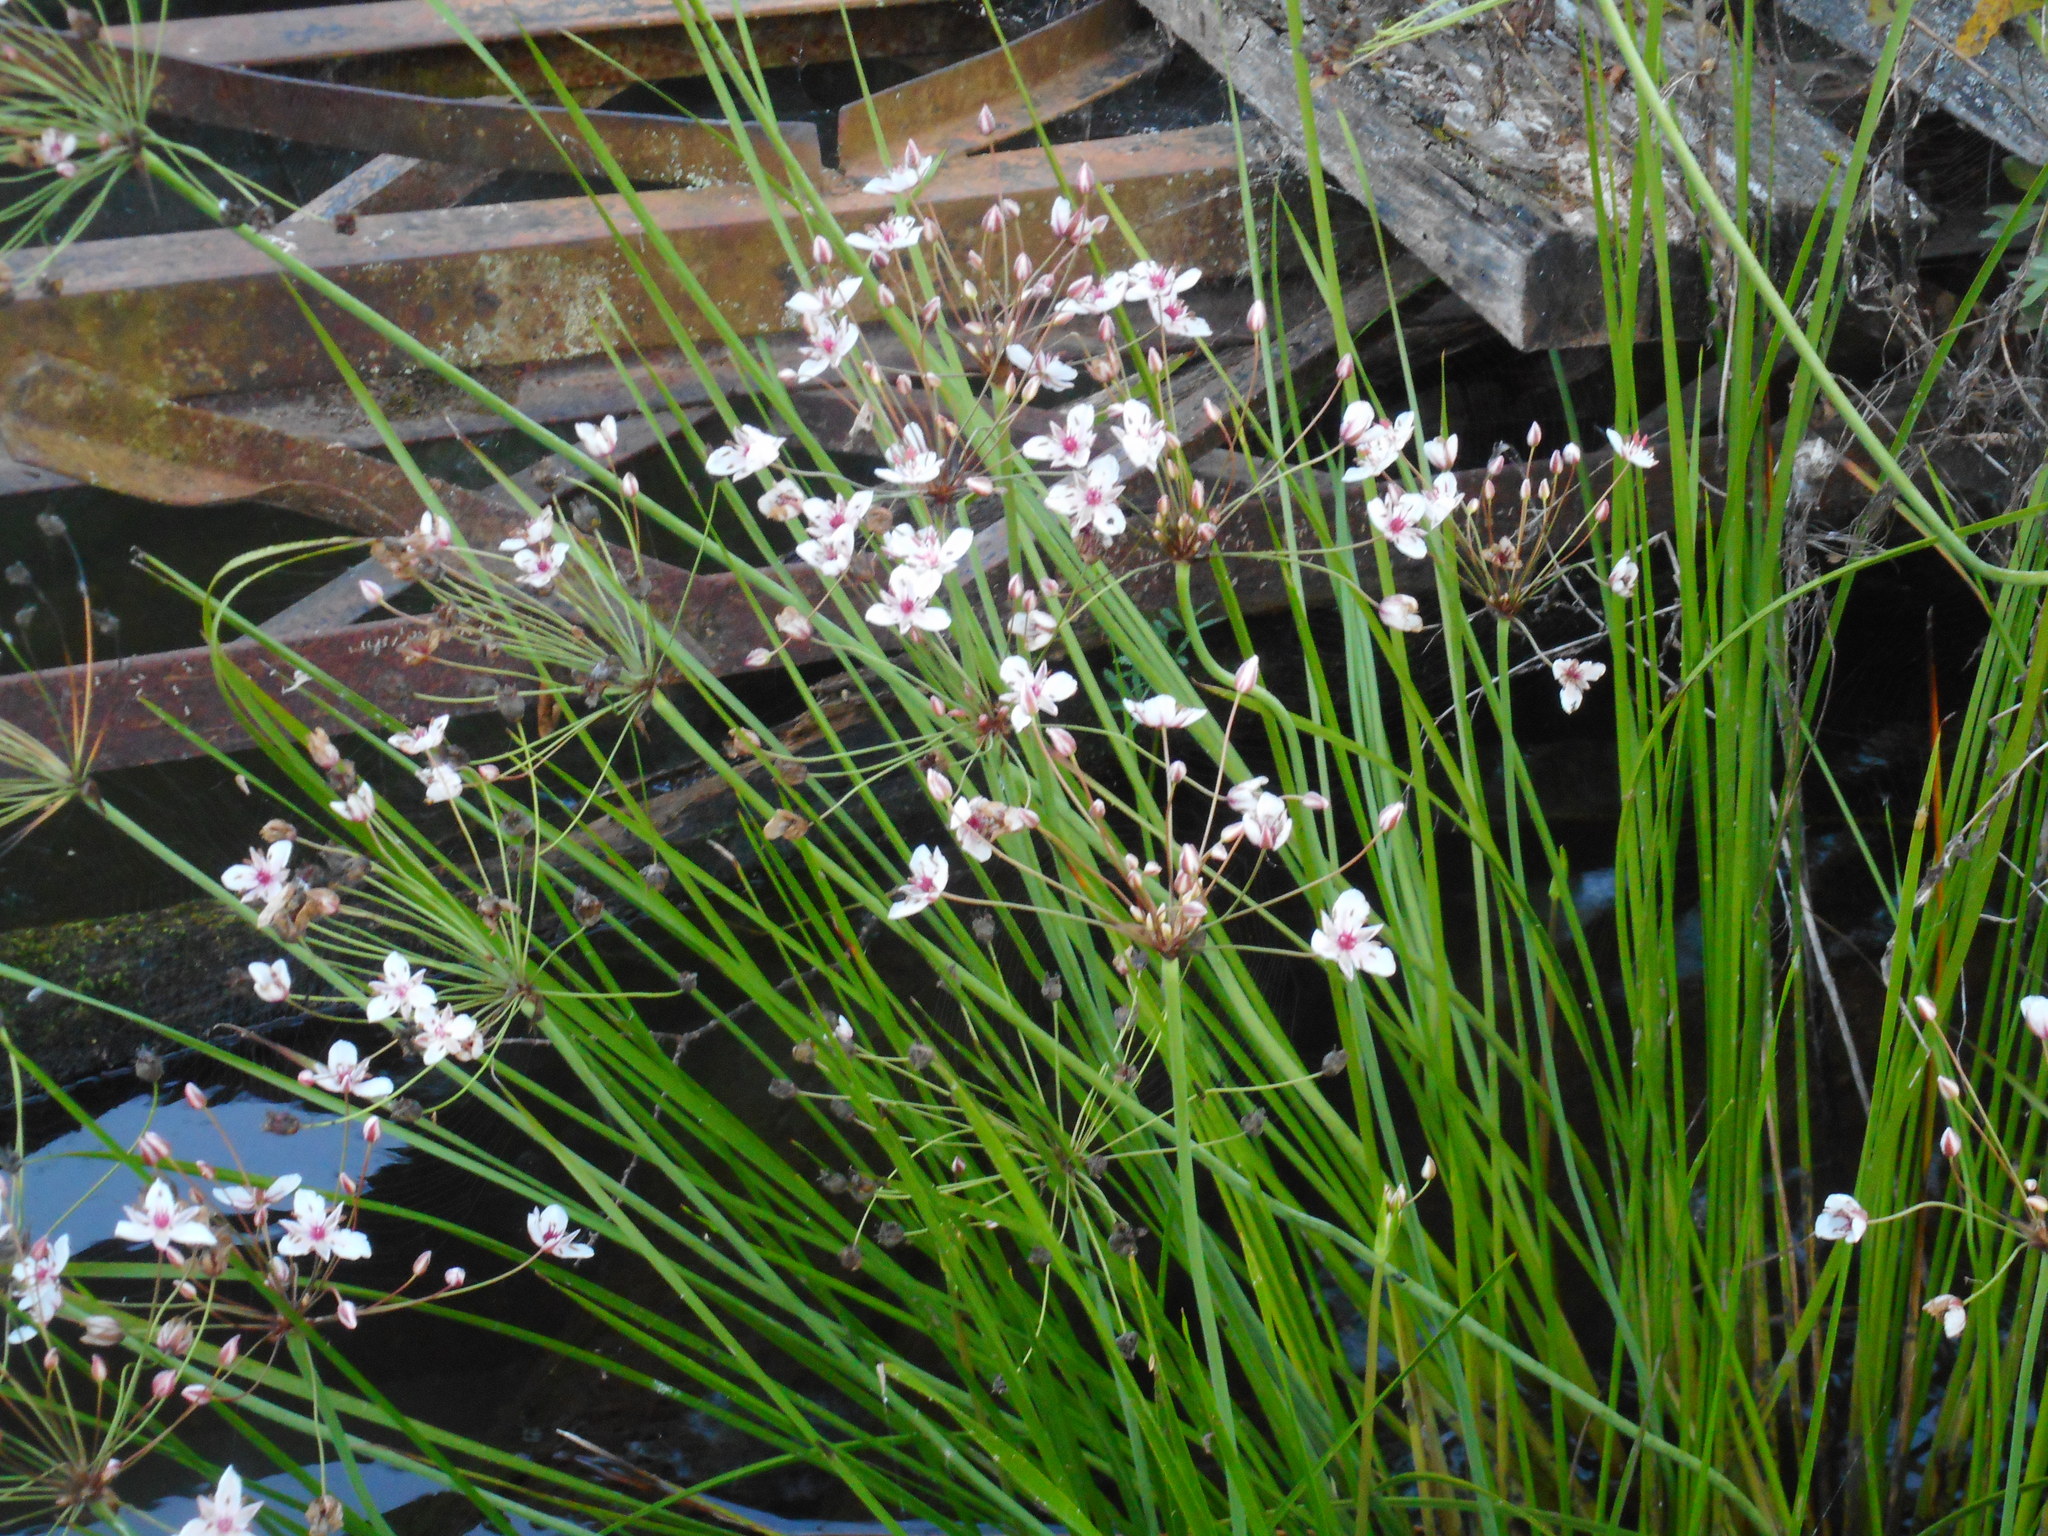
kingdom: Plantae
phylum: Tracheophyta
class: Liliopsida
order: Alismatales
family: Butomaceae
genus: Butomus
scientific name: Butomus umbellatus
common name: Flowering-rush
